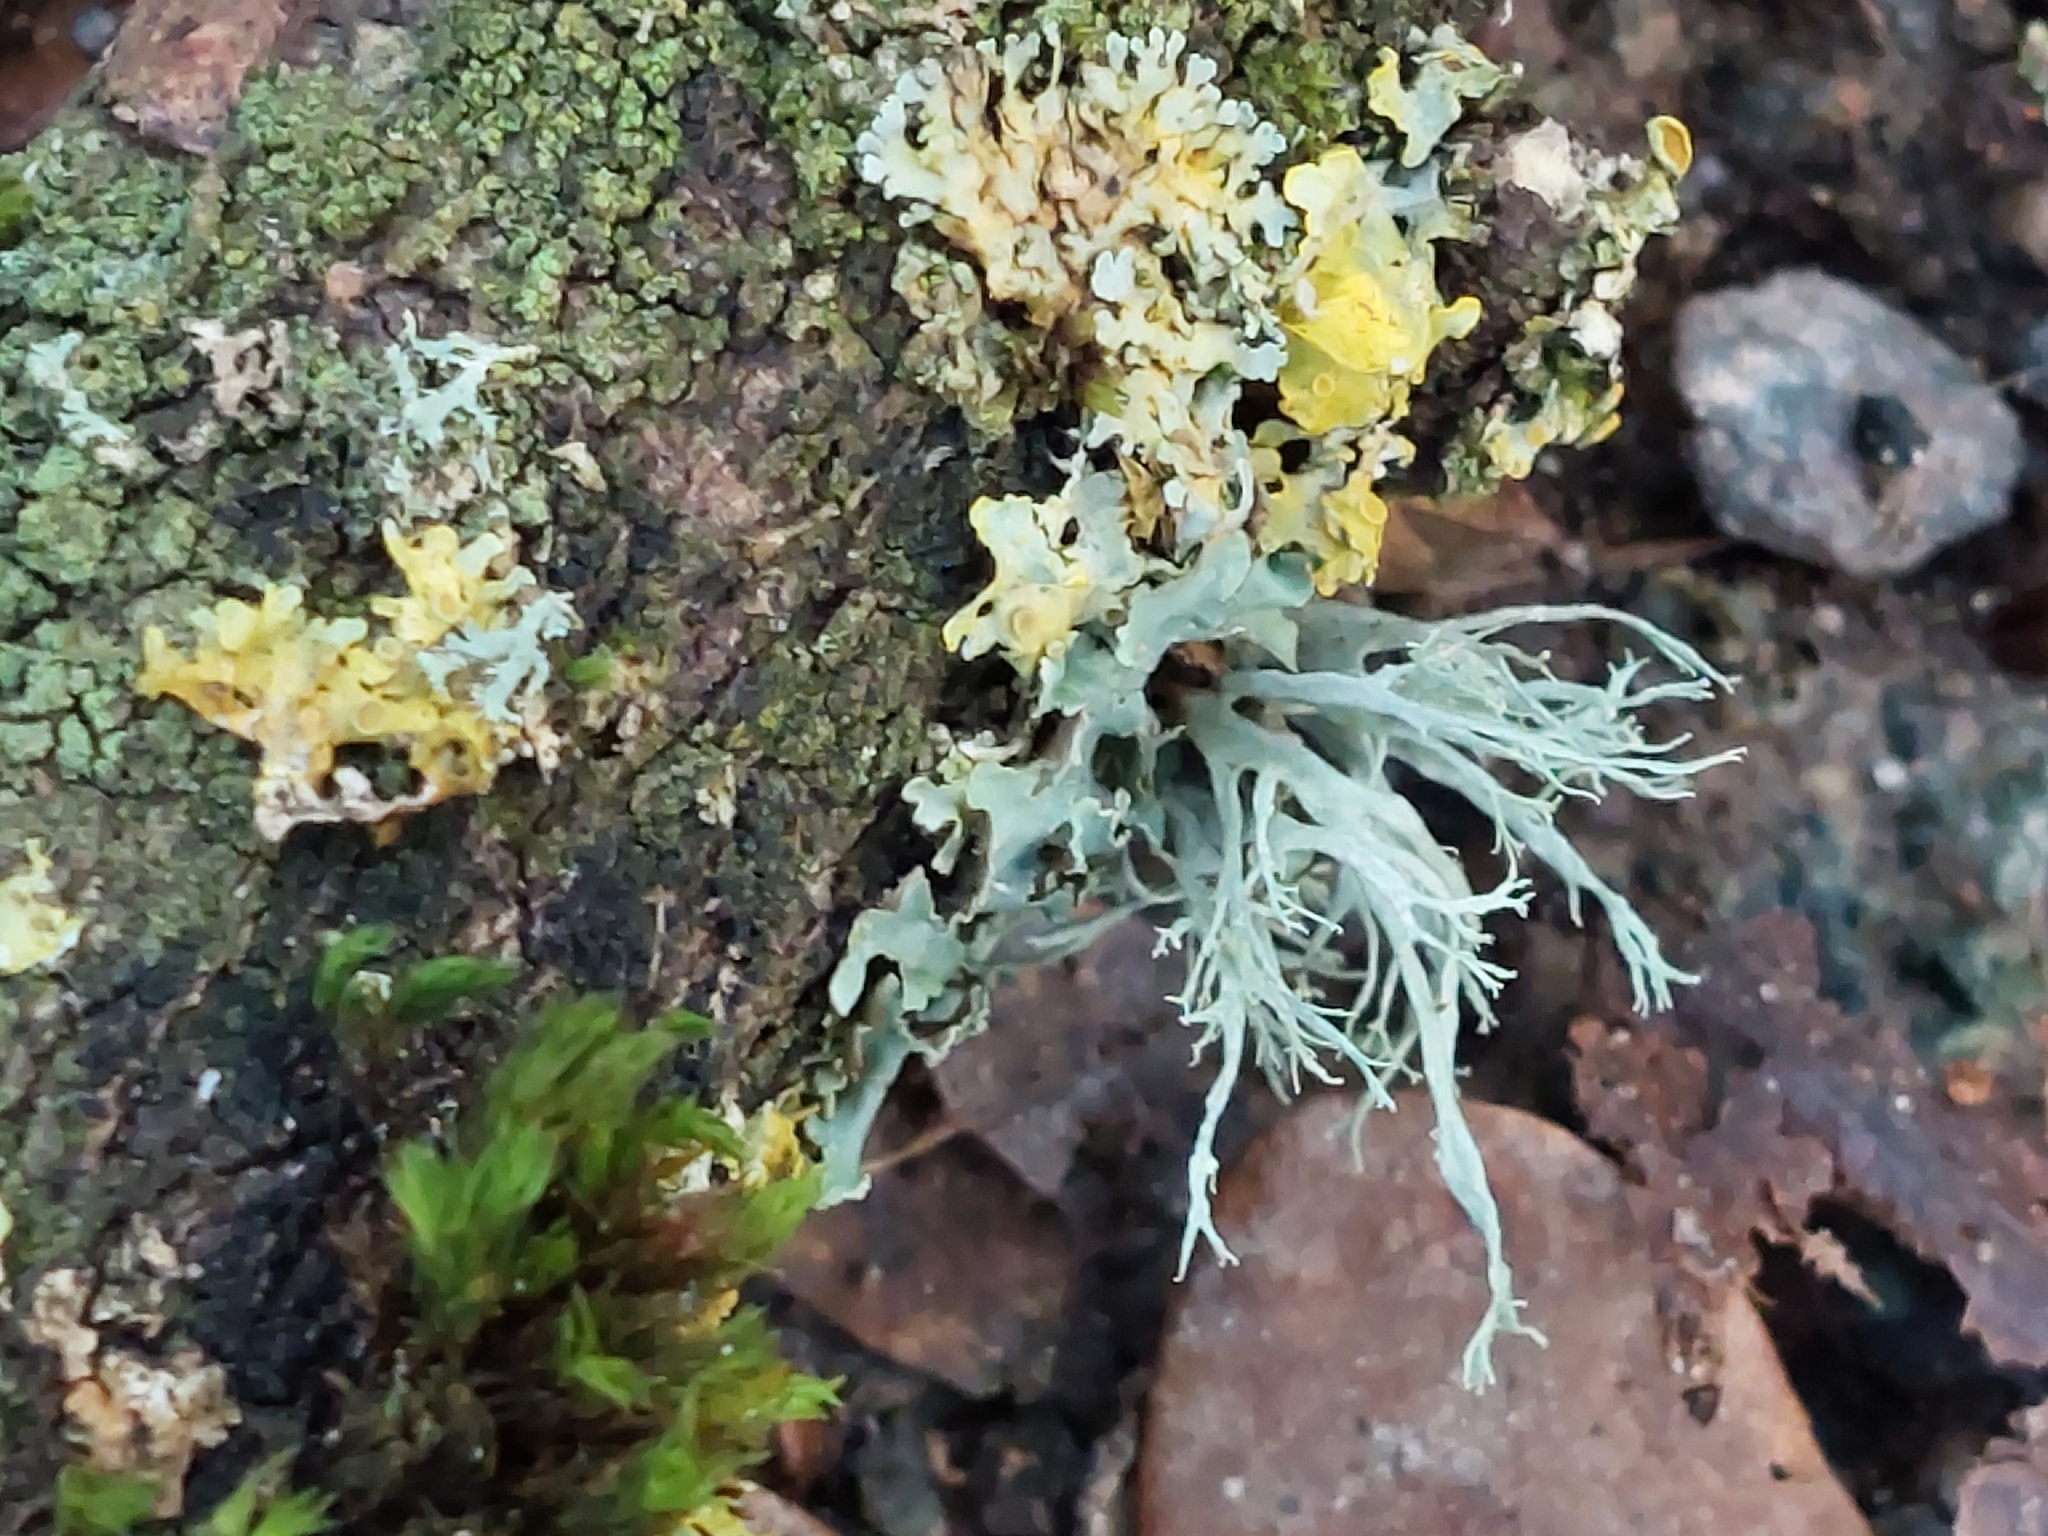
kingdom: Fungi
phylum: Ascomycota
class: Lecanoromycetes
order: Lecanorales
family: Ramalinaceae
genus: Ramalina
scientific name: Ramalina farinacea
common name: Farinose cartilage lichen
